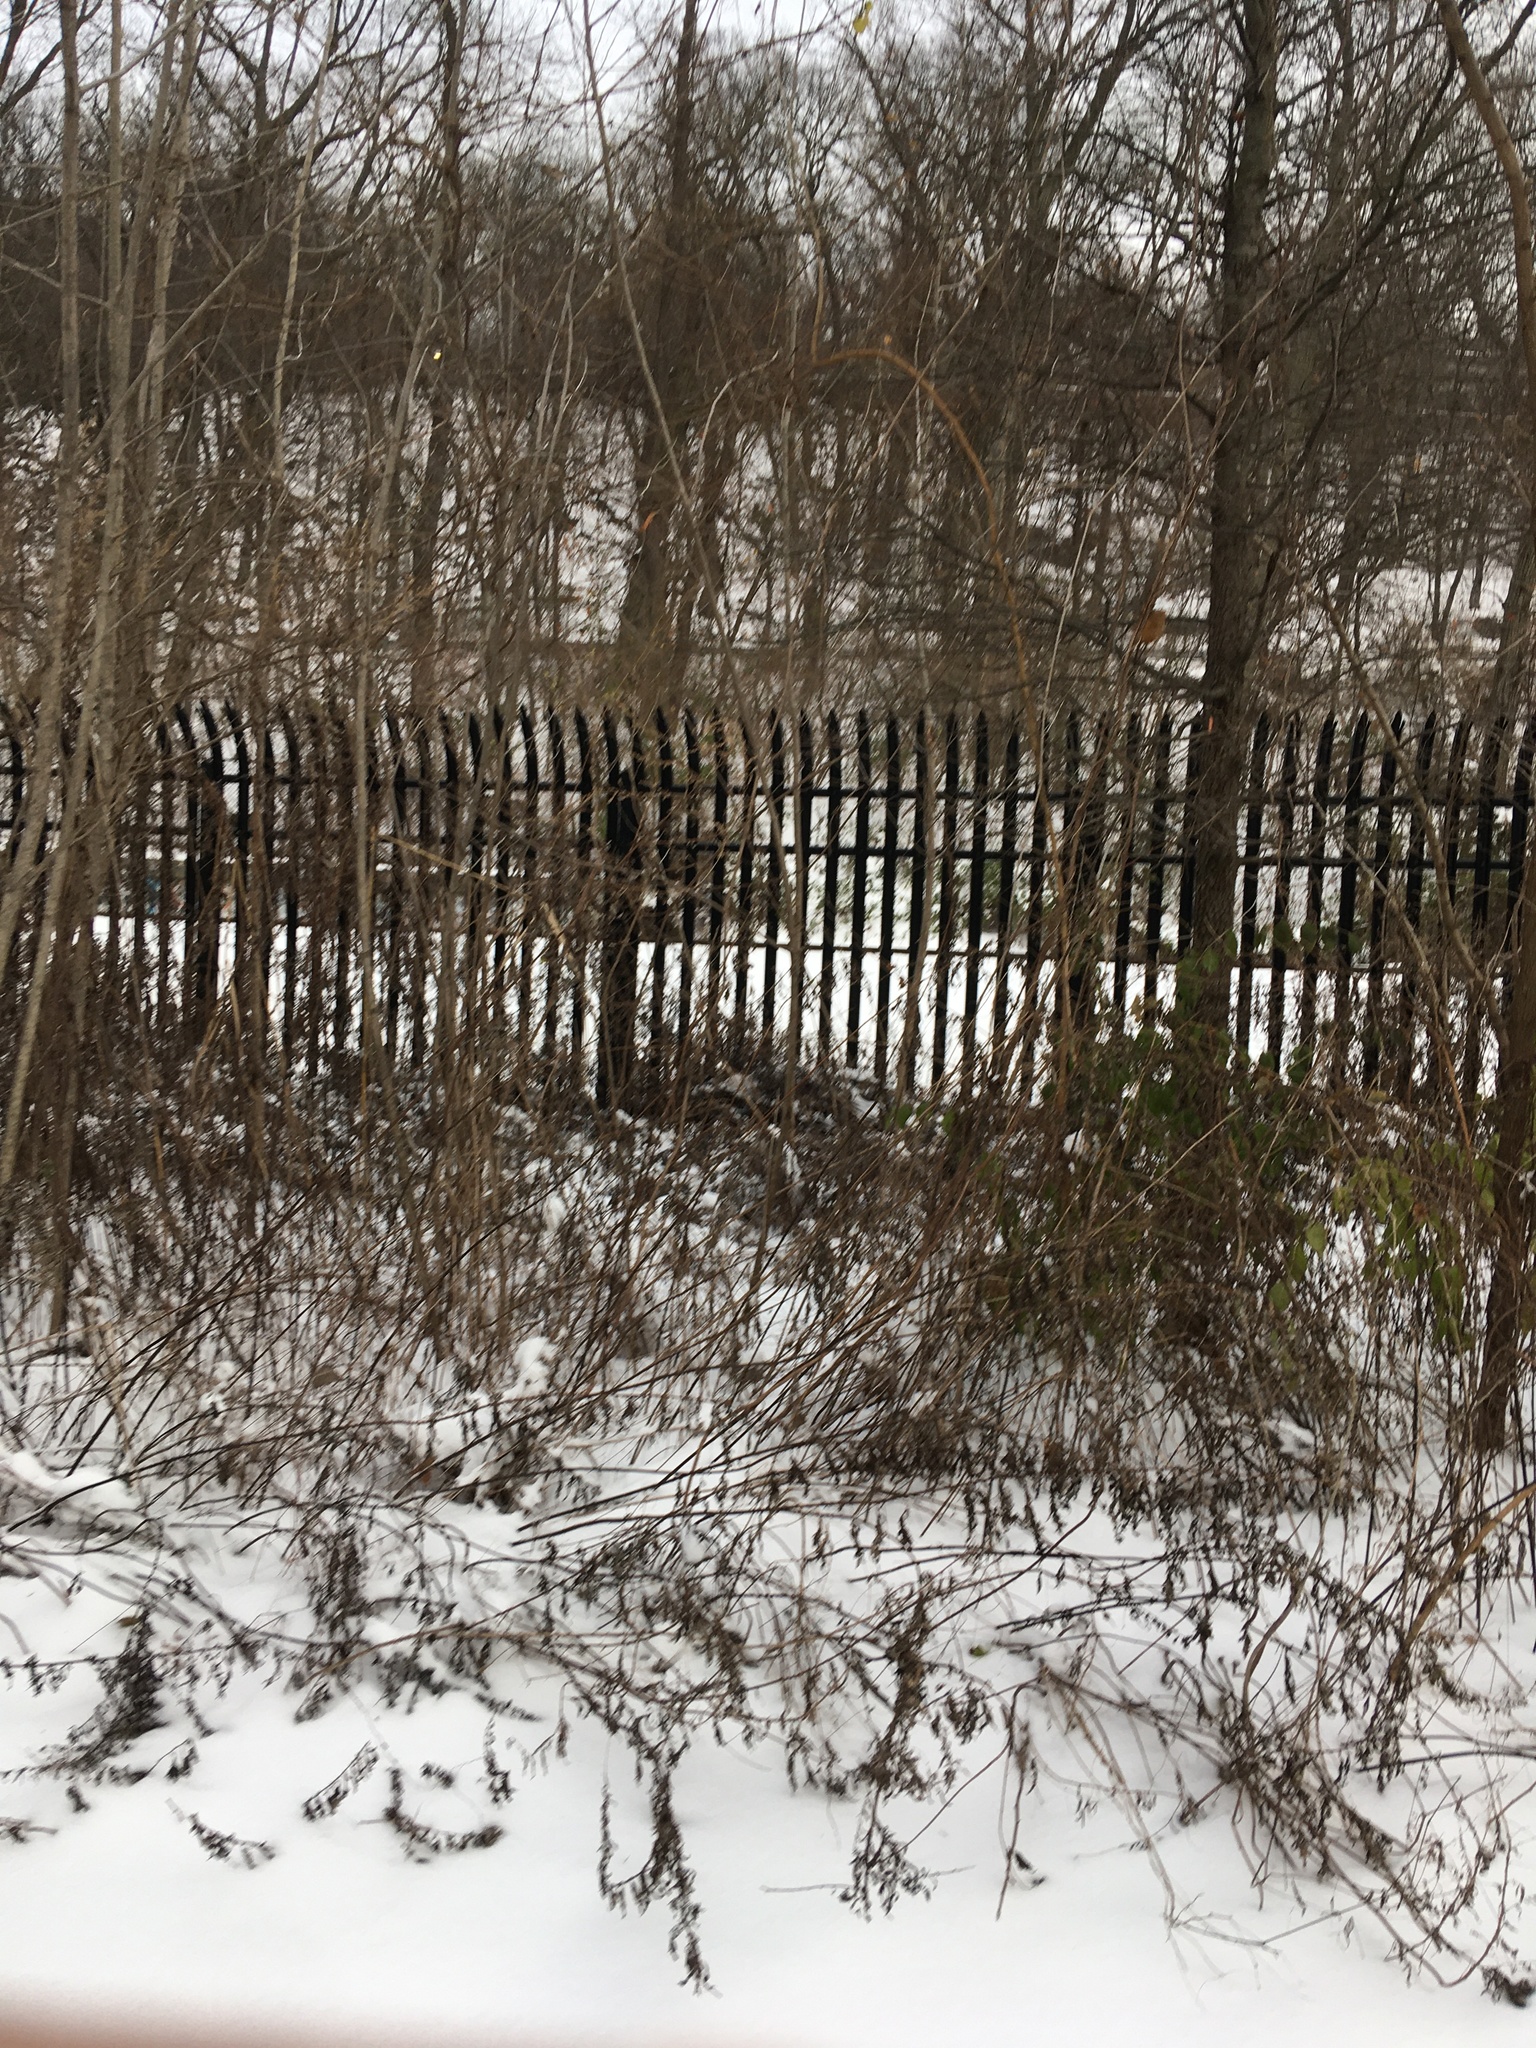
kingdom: Plantae
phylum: Tracheophyta
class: Magnoliopsida
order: Asterales
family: Asteraceae
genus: Artemisia
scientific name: Artemisia vulgaris
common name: Mugwort
